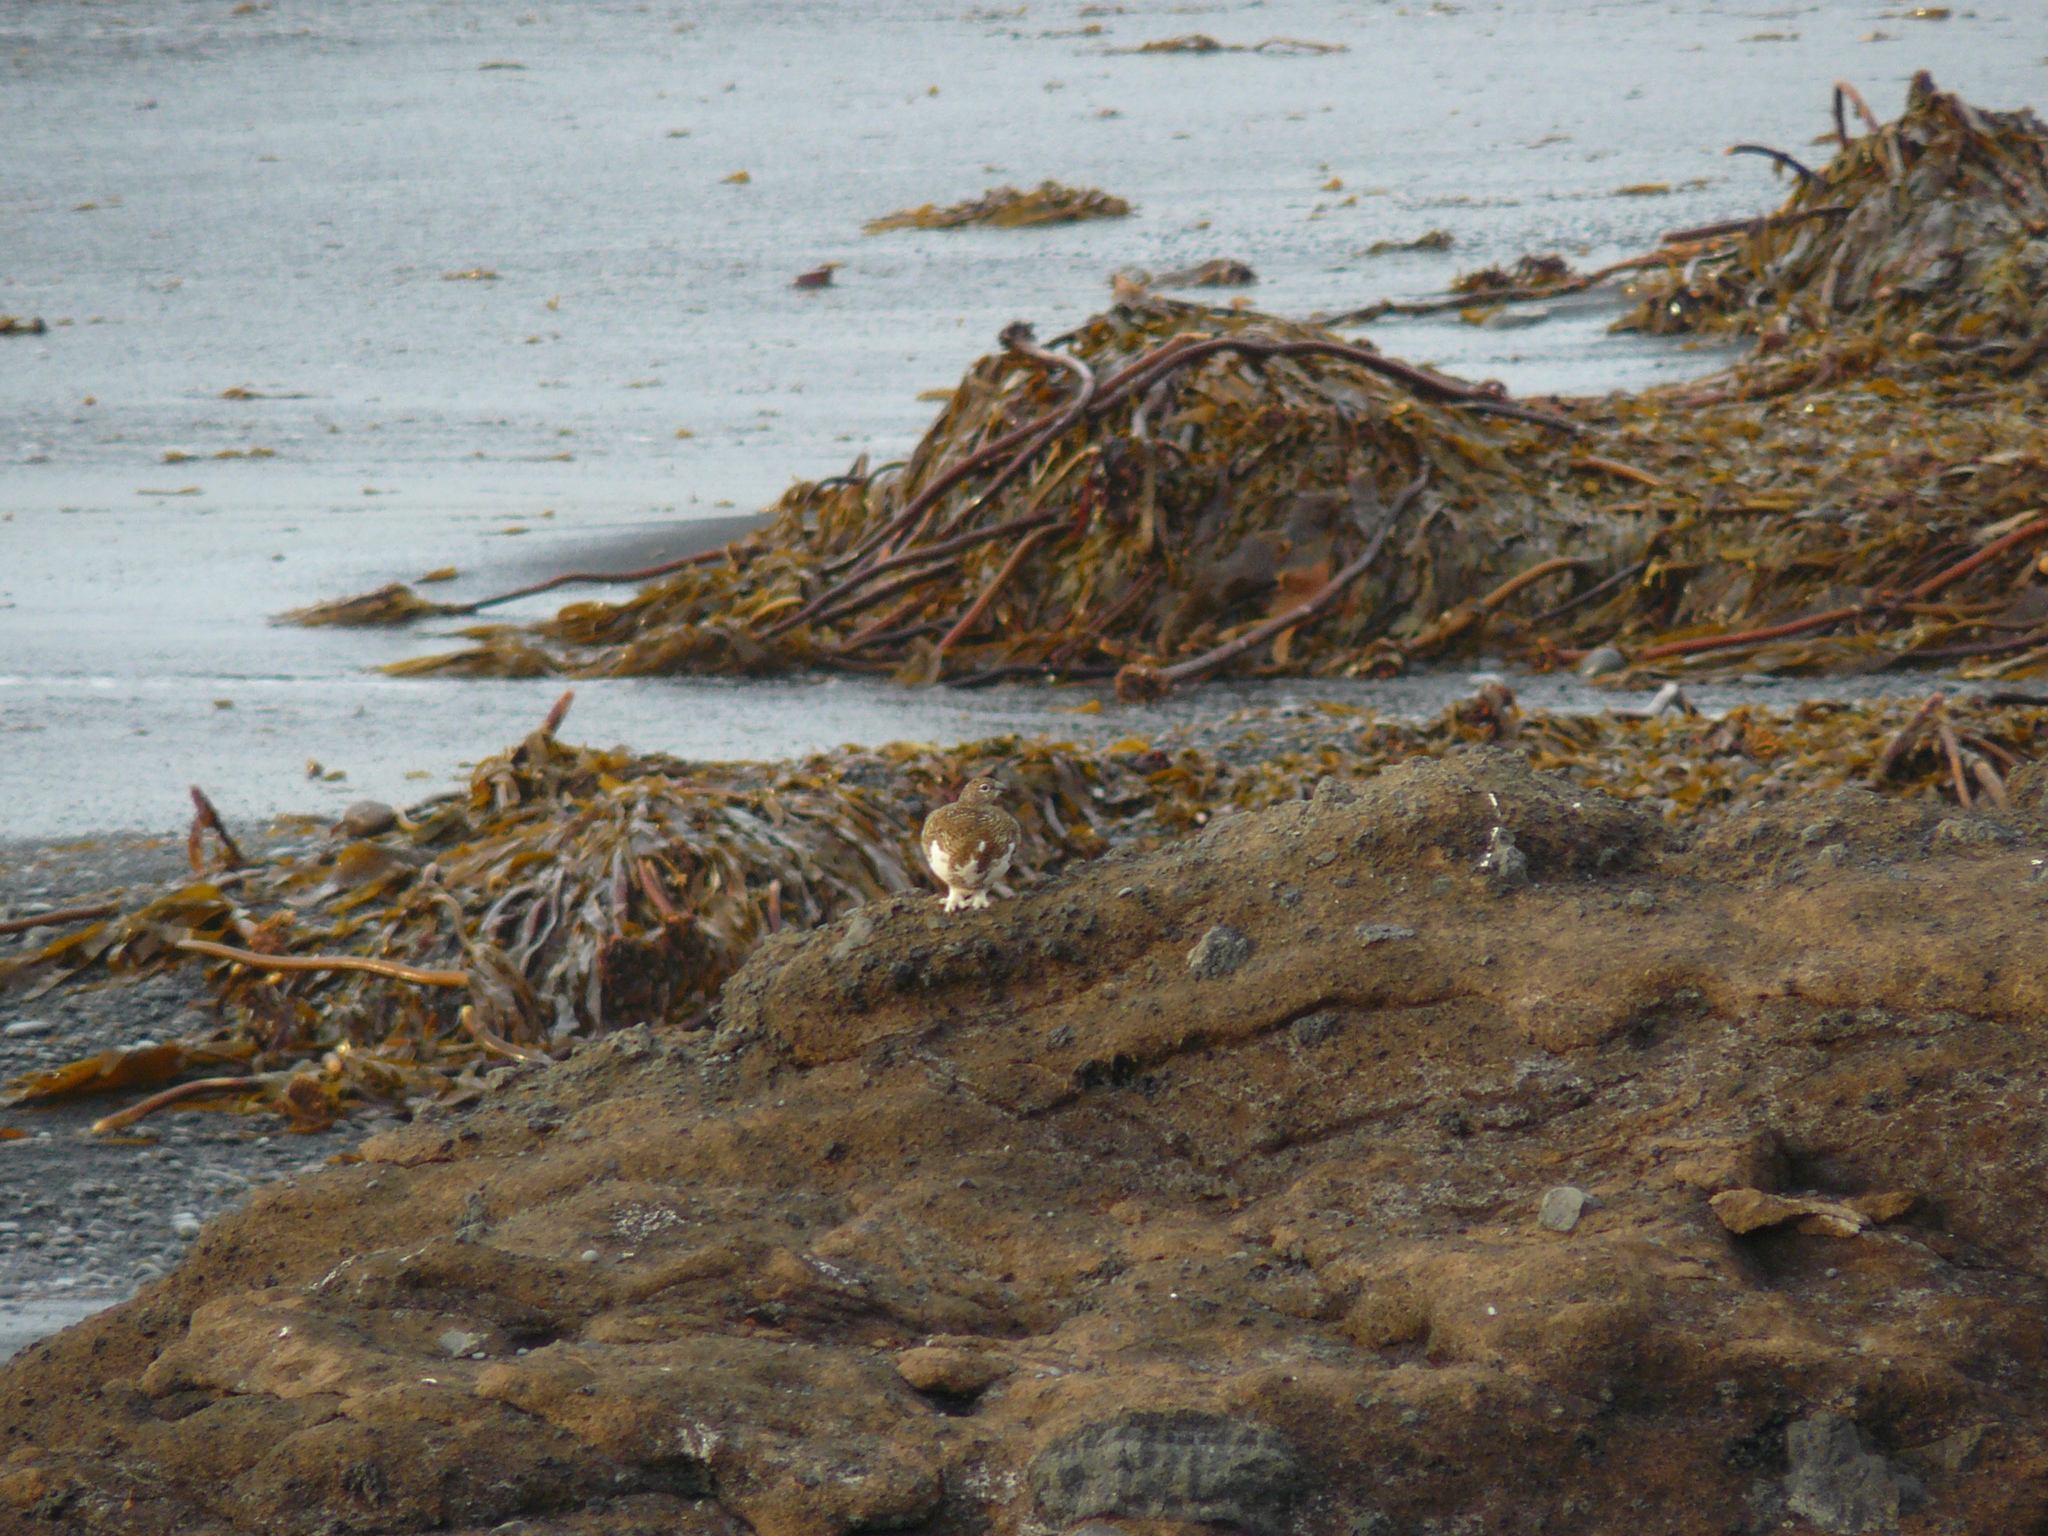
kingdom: Animalia
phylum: Chordata
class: Aves
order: Galliformes
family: Phasianidae
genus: Lagopus
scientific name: Lagopus muta
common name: Rock ptarmigan
